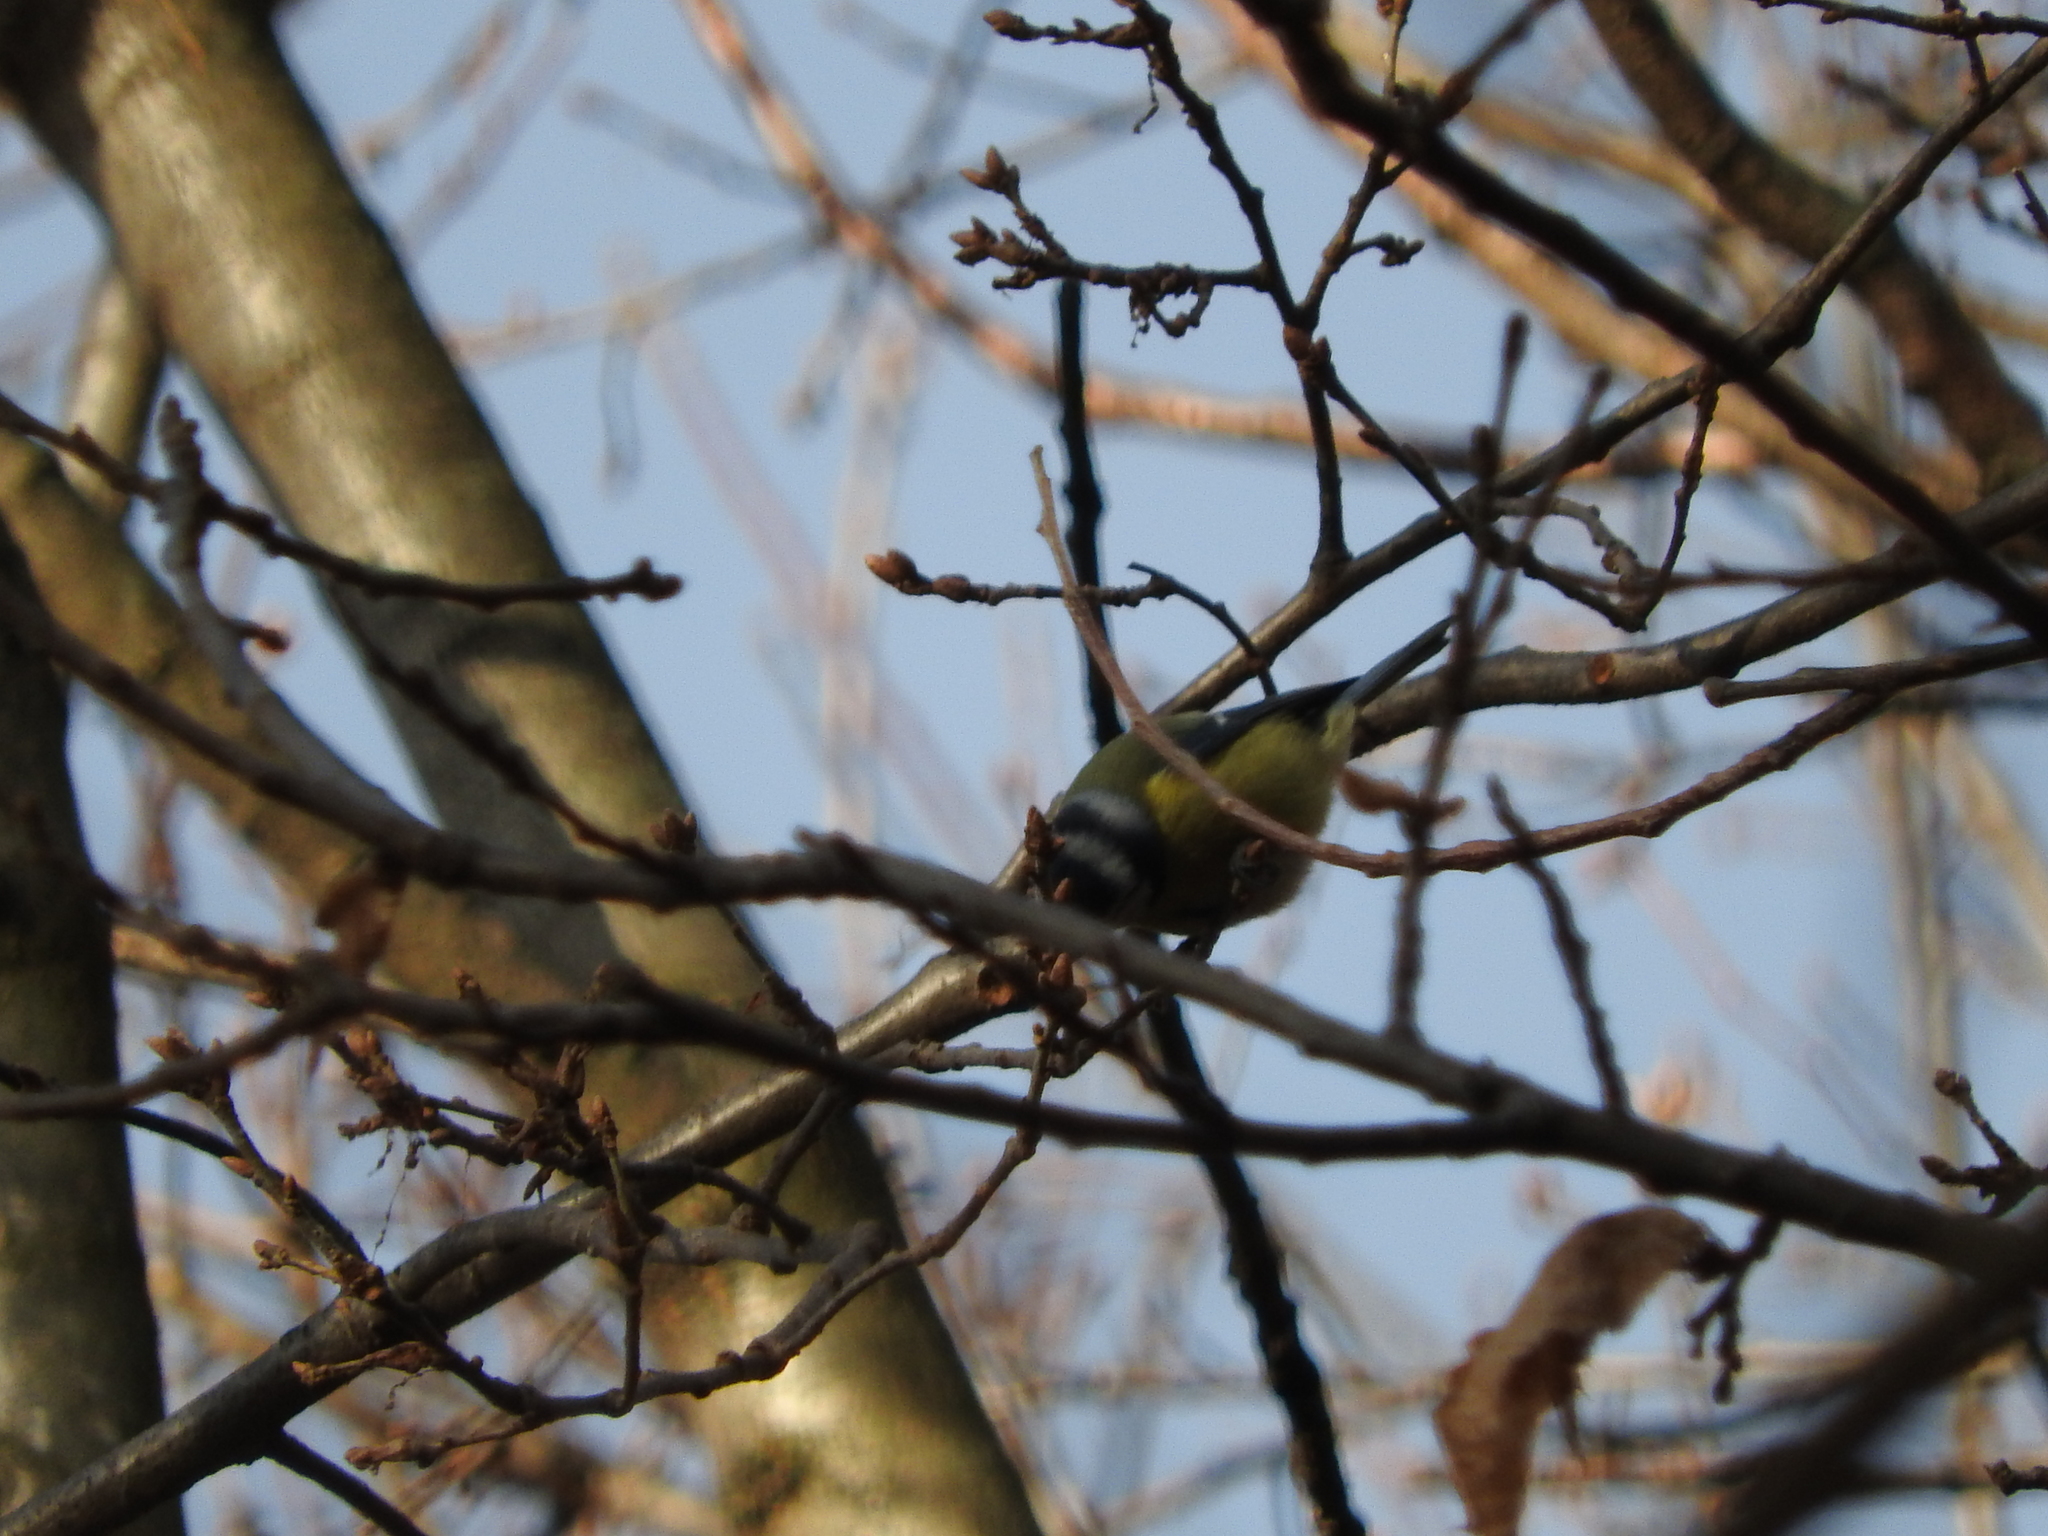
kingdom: Animalia
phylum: Chordata
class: Aves
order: Passeriformes
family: Paridae
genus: Cyanistes
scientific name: Cyanistes caeruleus
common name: Eurasian blue tit
